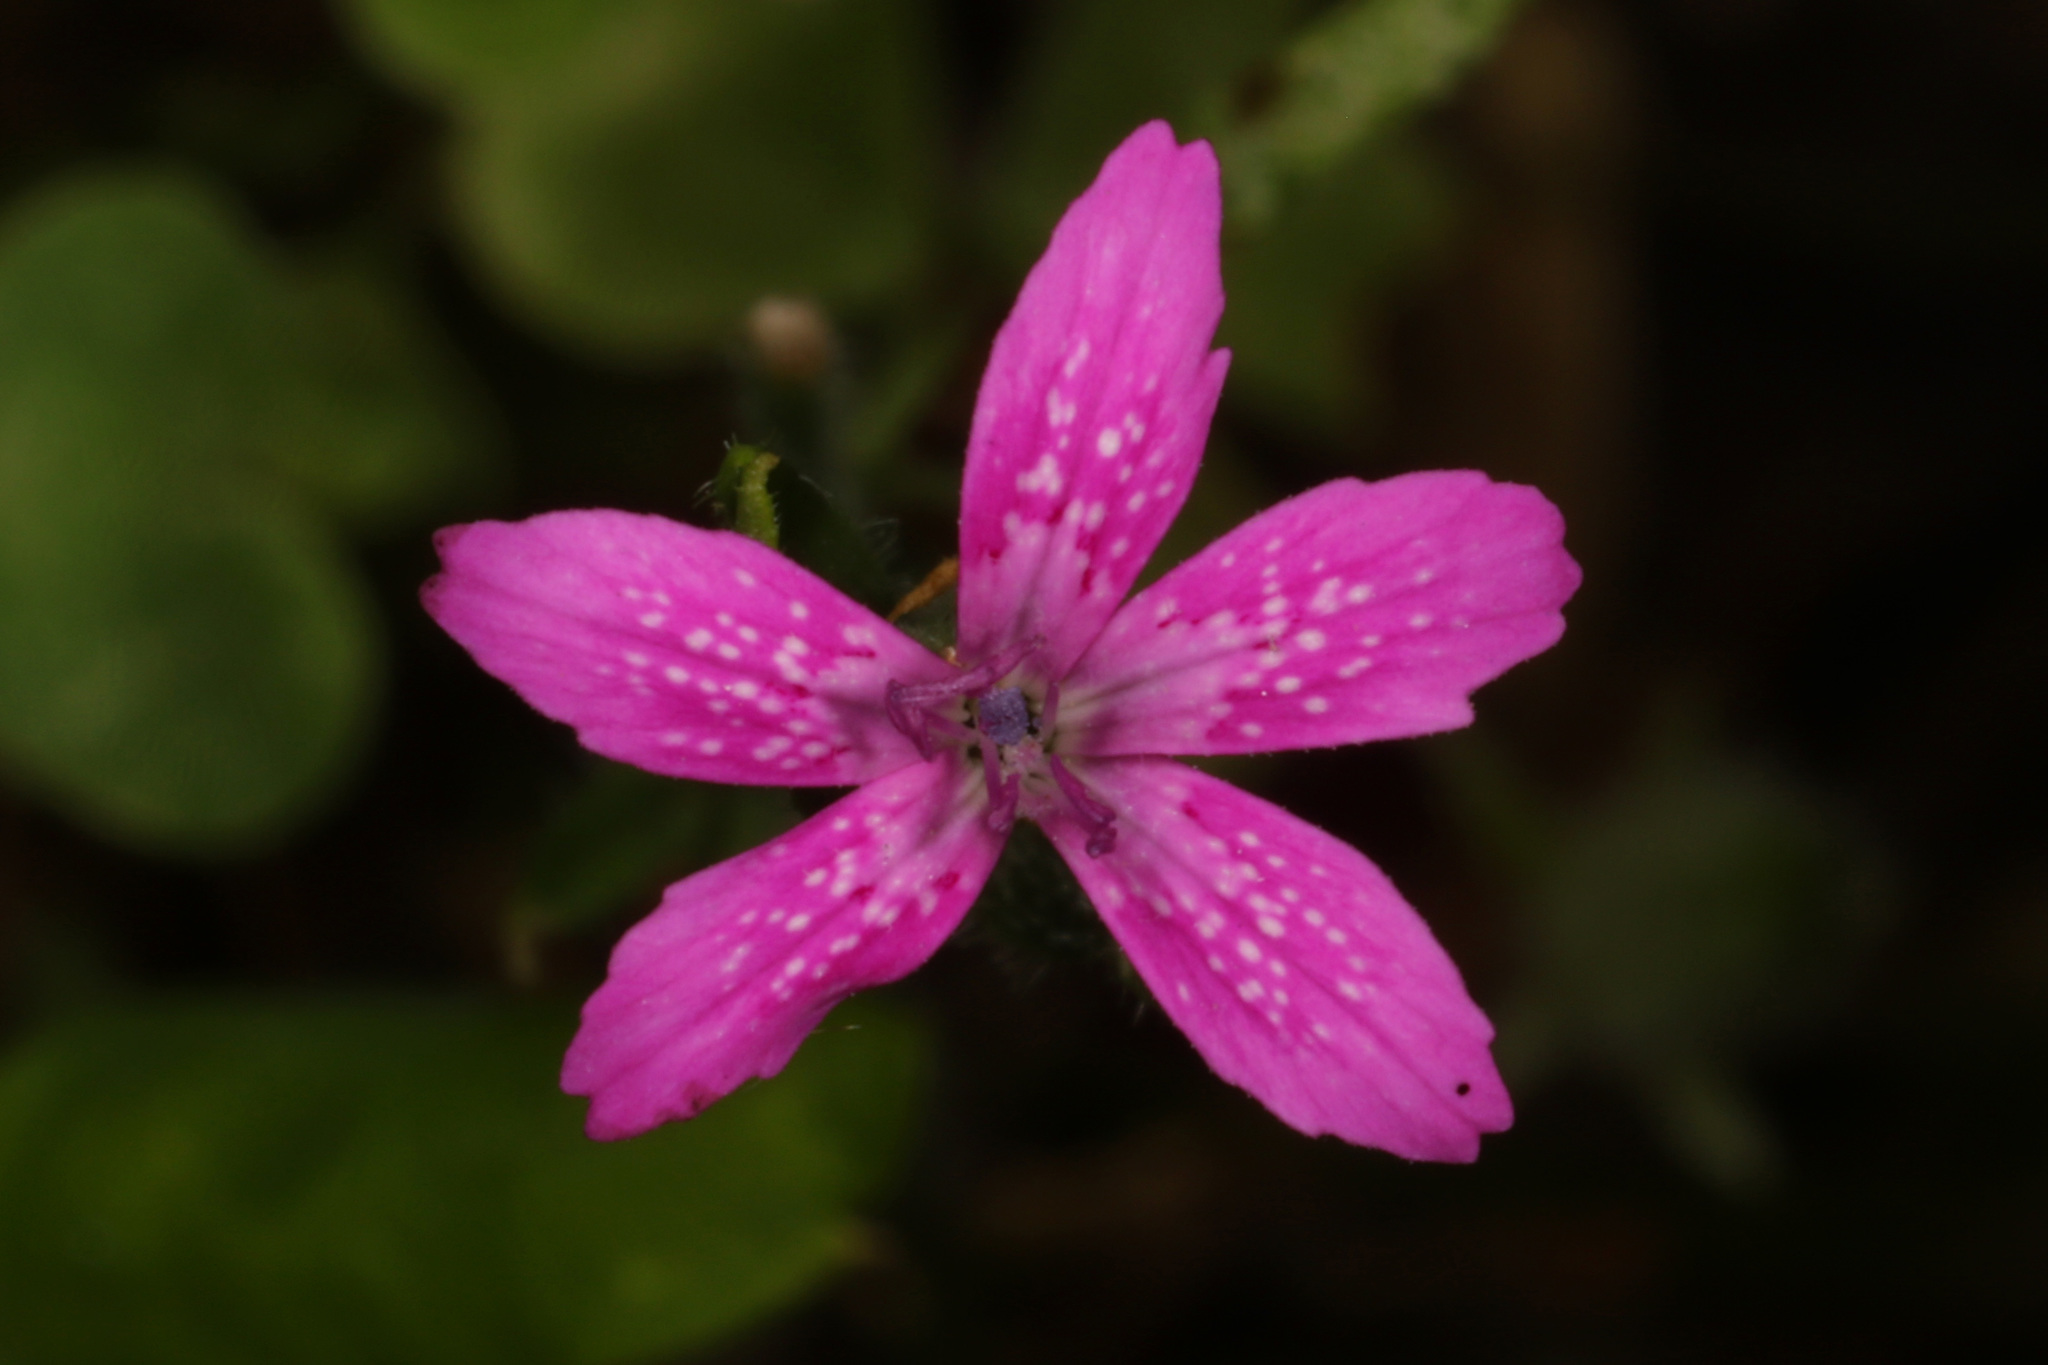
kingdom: Plantae
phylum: Tracheophyta
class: Magnoliopsida
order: Caryophyllales
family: Caryophyllaceae
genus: Dianthus
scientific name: Dianthus armeria
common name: Deptford pink
